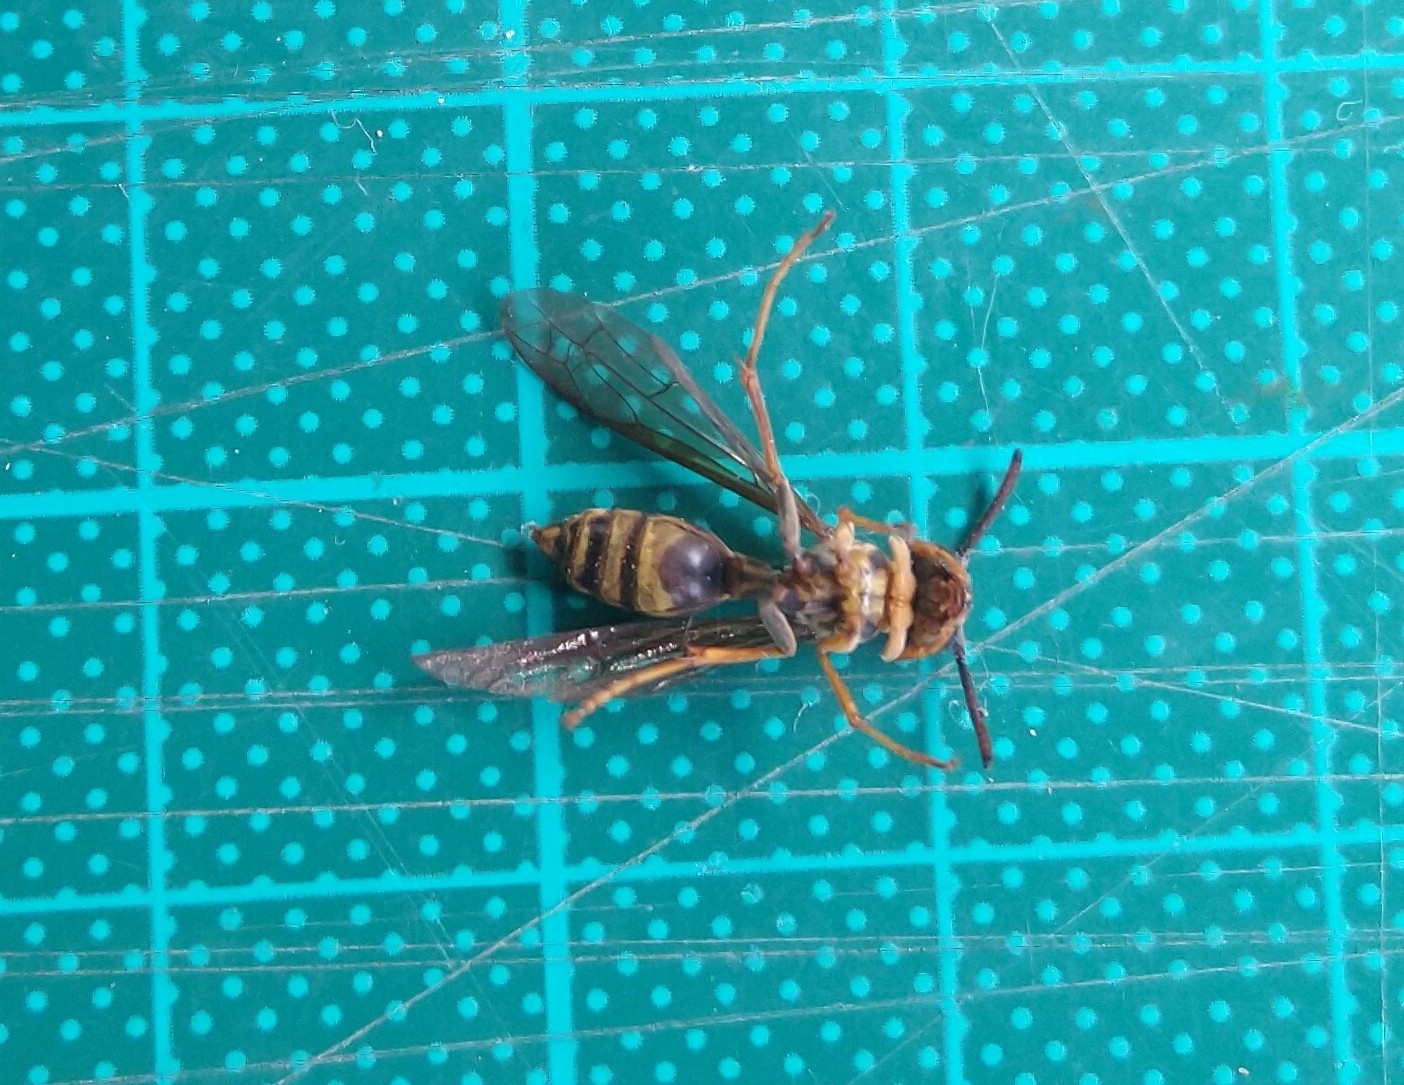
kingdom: Animalia
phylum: Arthropoda
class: Insecta
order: Hymenoptera
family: Vespidae
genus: Agelaia
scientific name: Agelaia multipicta
